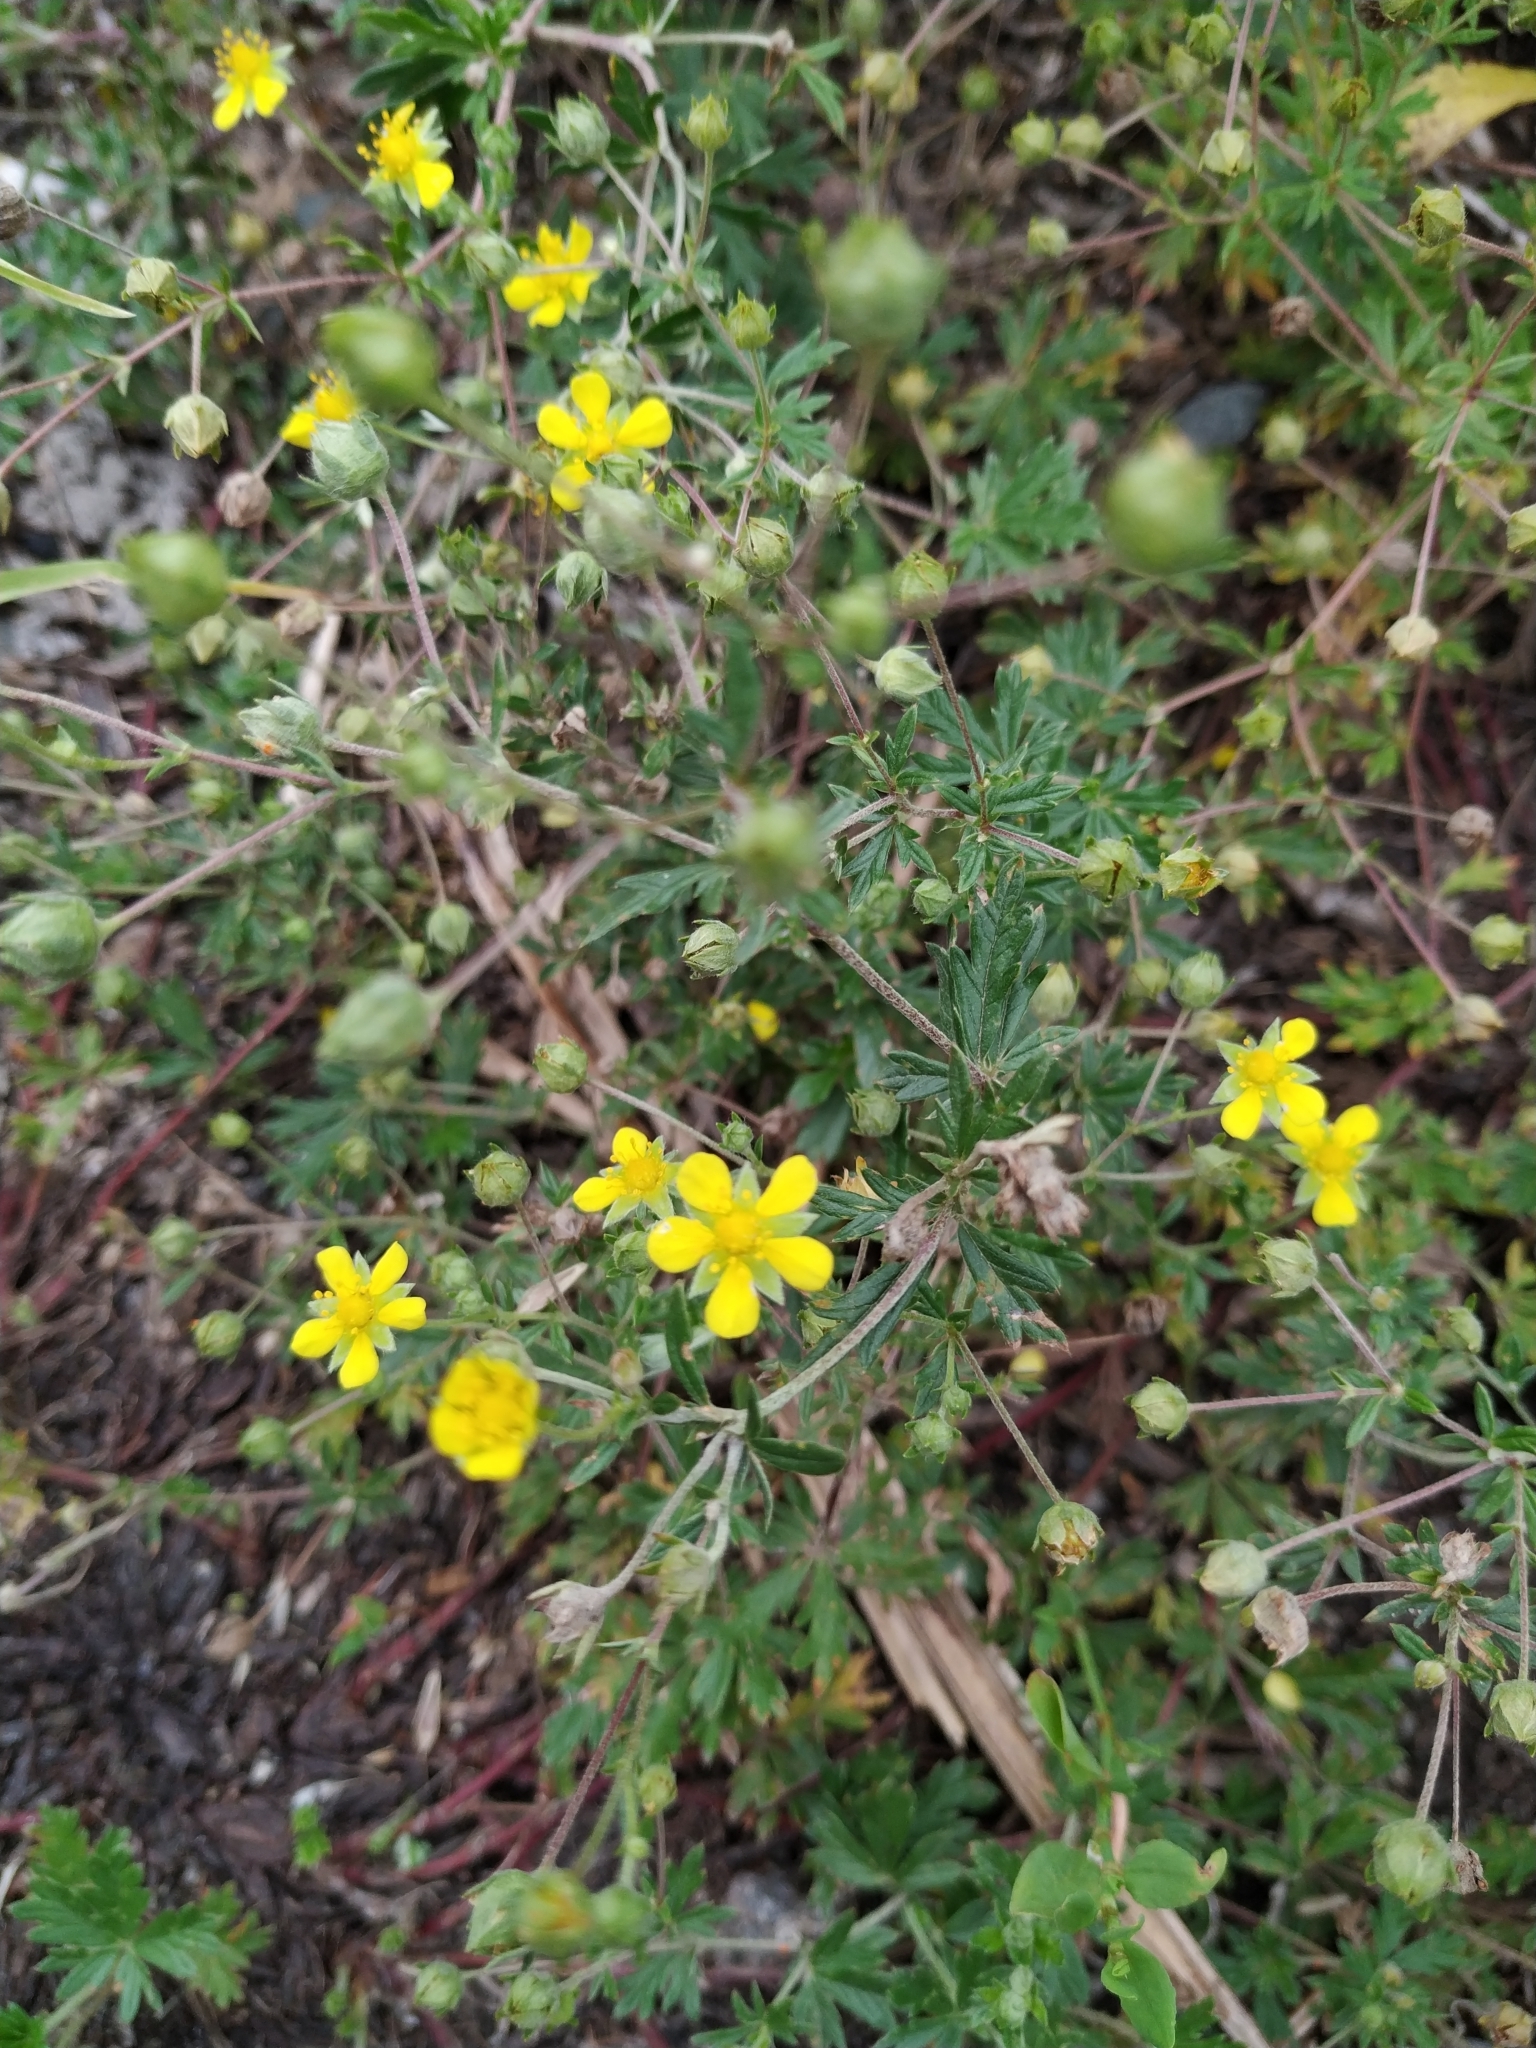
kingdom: Plantae
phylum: Tracheophyta
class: Magnoliopsida
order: Rosales
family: Rosaceae
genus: Potentilla
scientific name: Potentilla argentea
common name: Hoary cinquefoil
